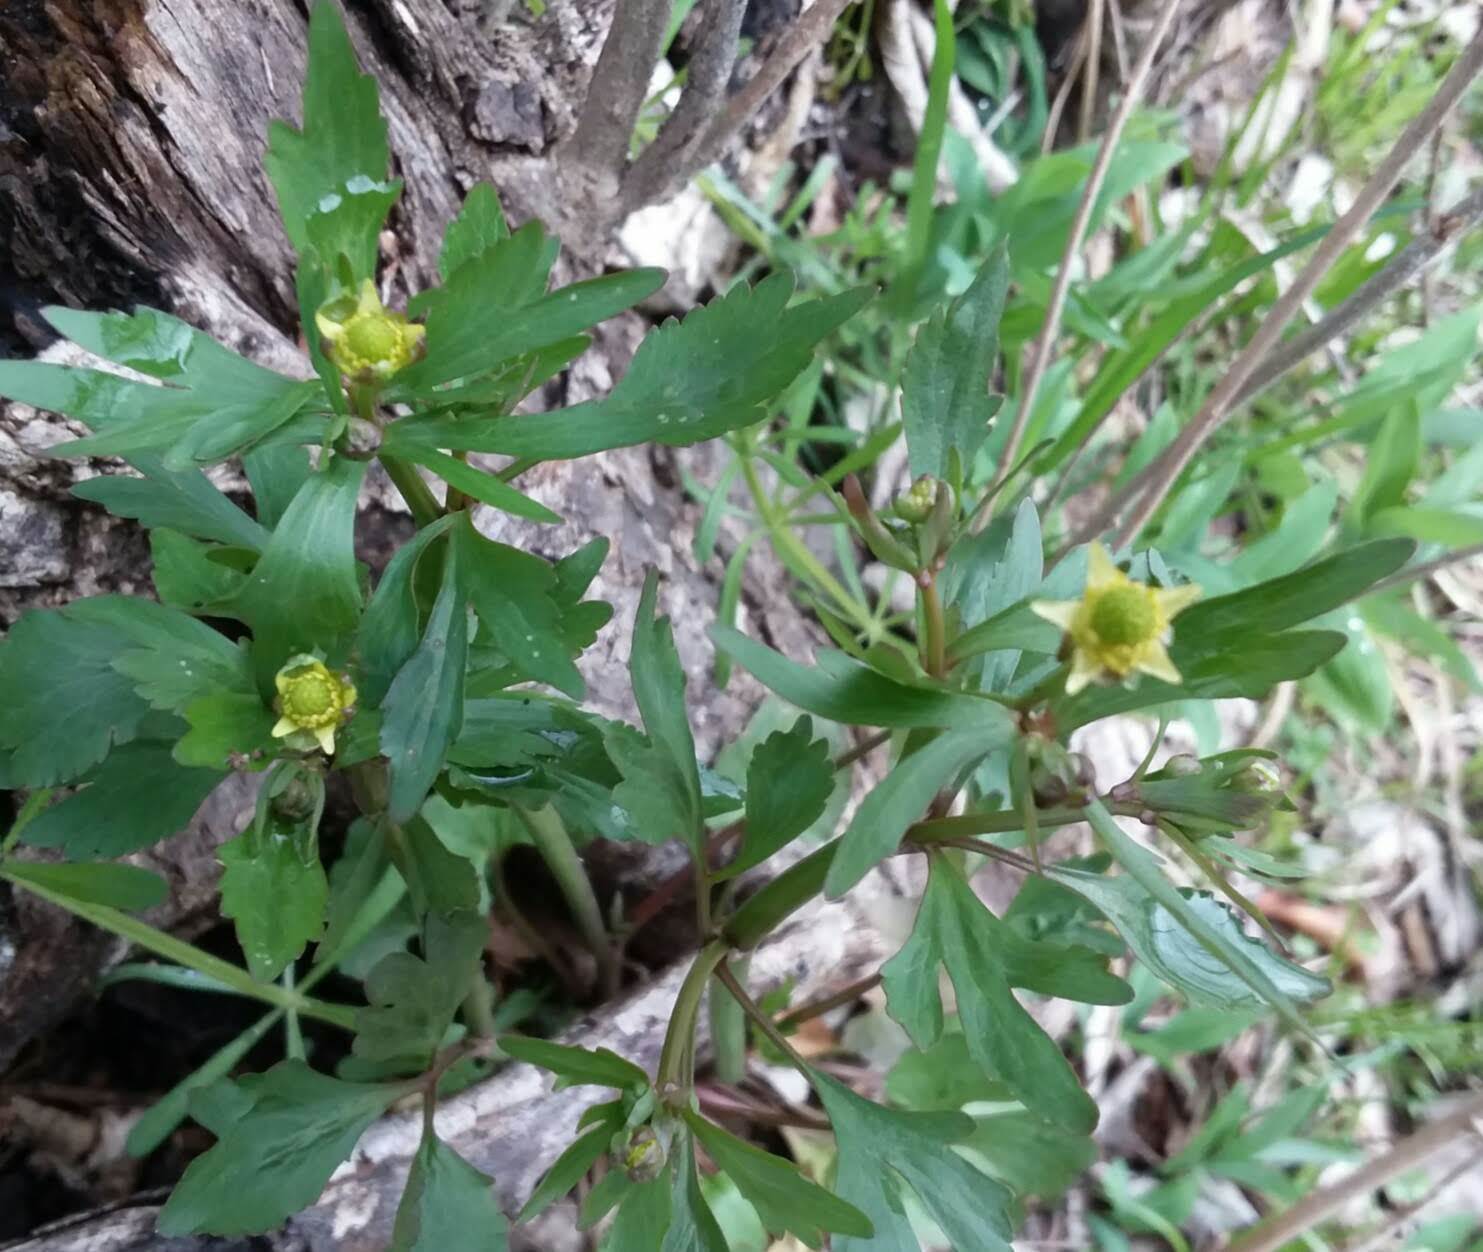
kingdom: Plantae
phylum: Tracheophyta
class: Magnoliopsida
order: Ranunculales
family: Ranunculaceae
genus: Ranunculus
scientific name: Ranunculus abortivus
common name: Early wood buttercup
